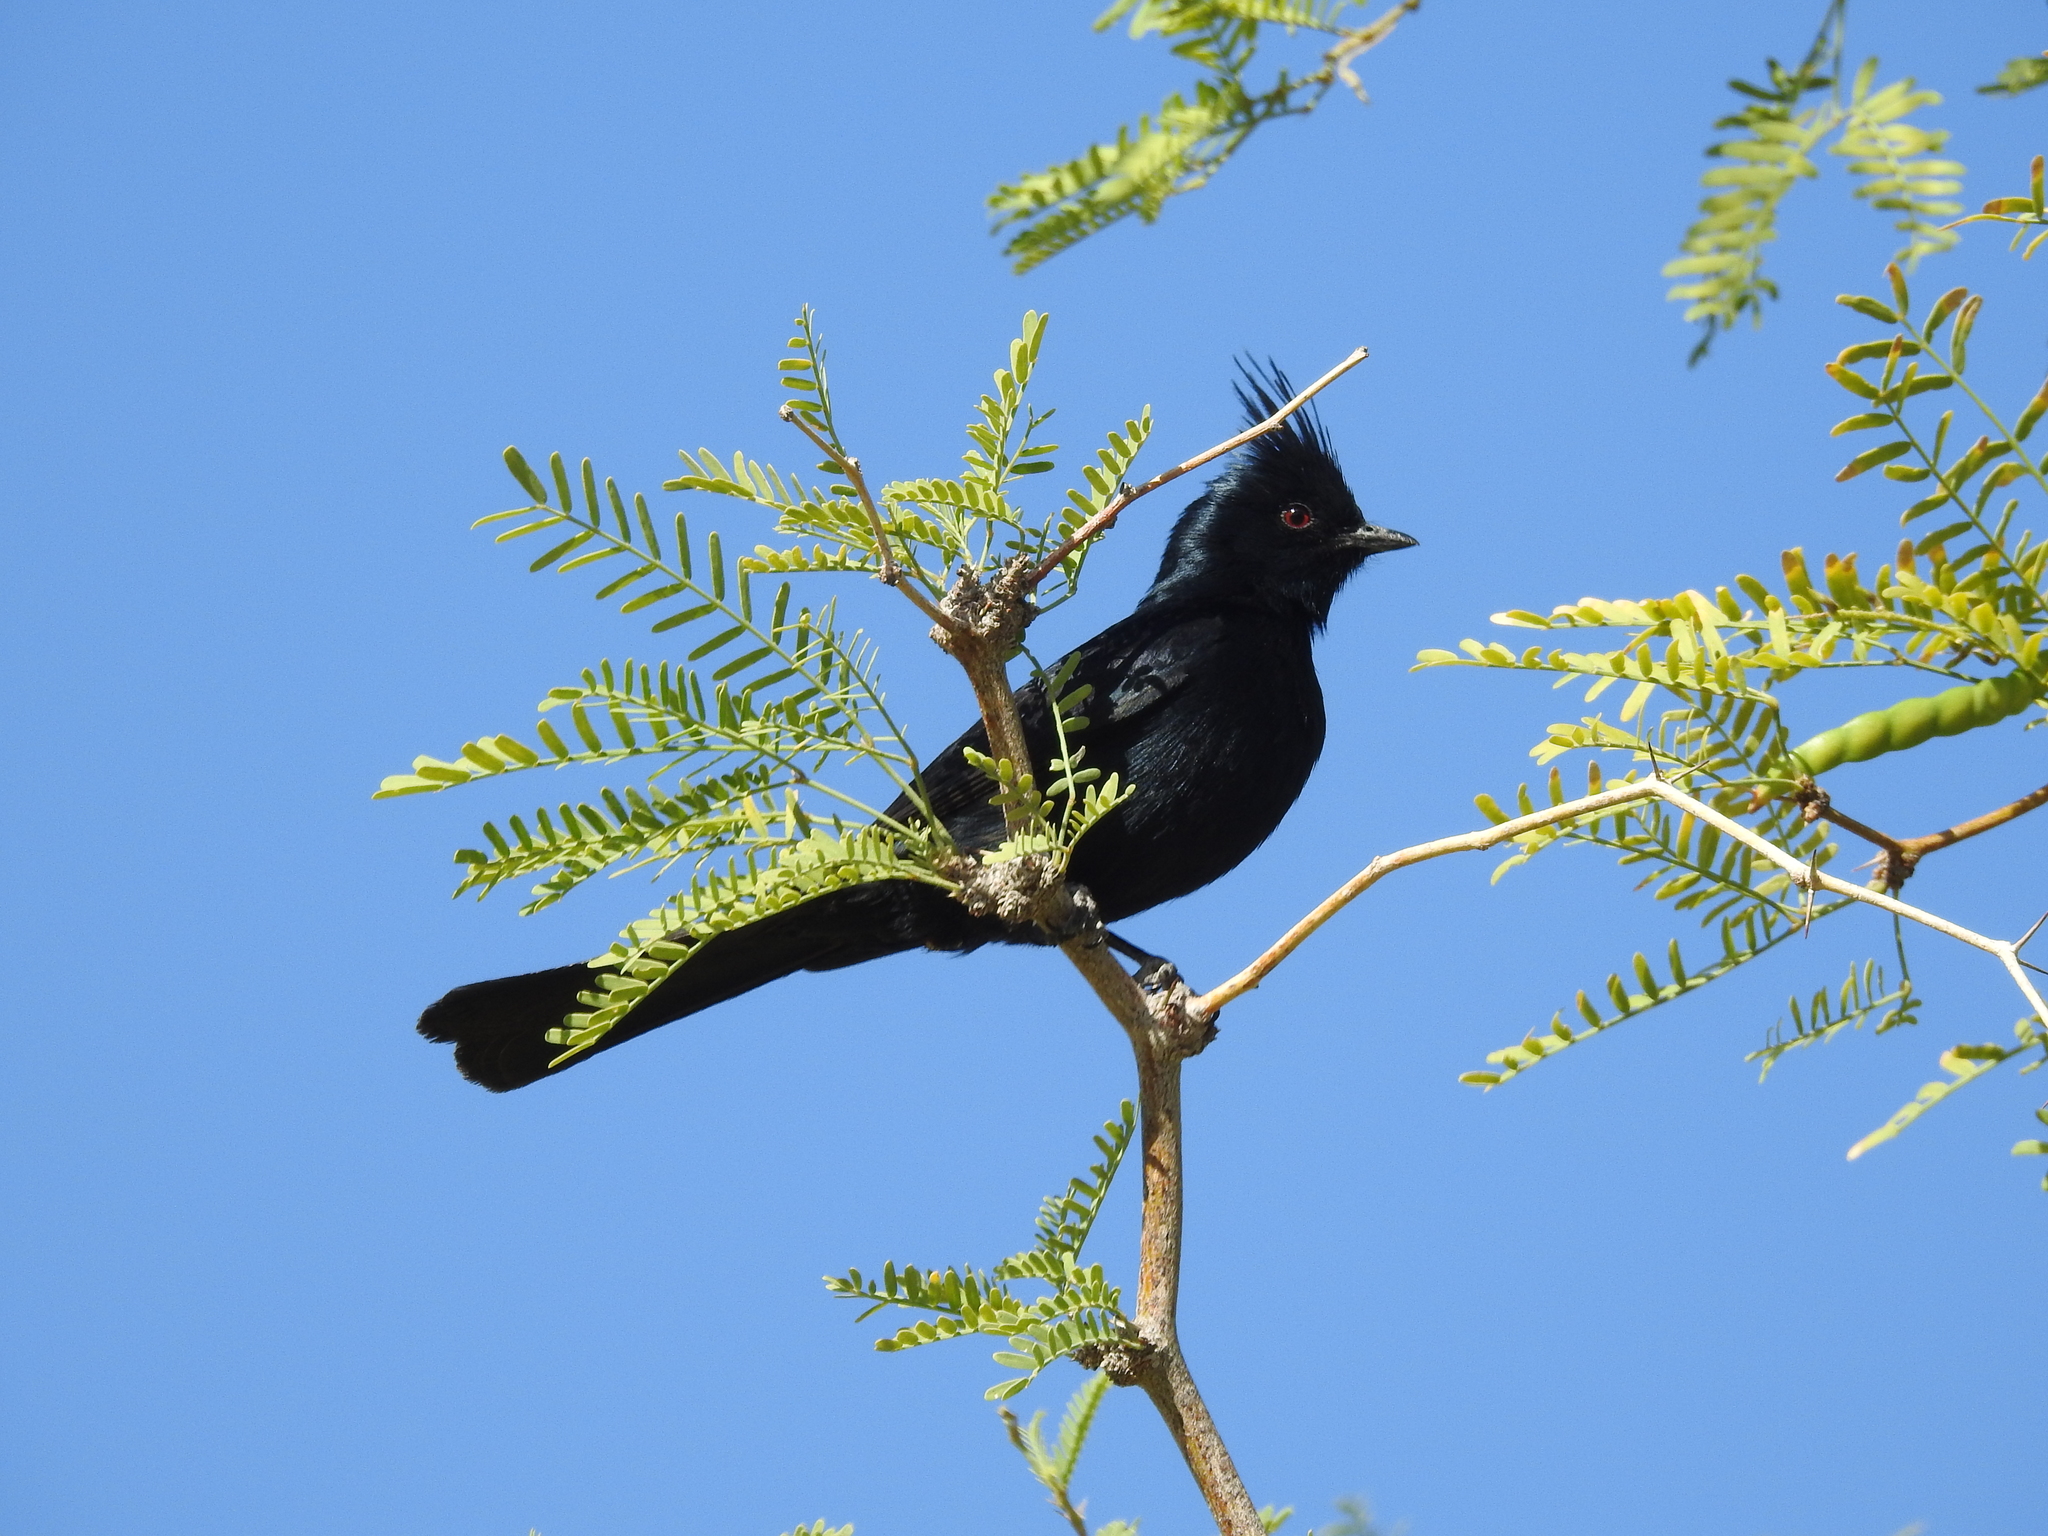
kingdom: Animalia
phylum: Chordata
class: Aves
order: Passeriformes
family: Ptilogonatidae
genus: Phainopepla
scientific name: Phainopepla nitens
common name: Phainopepla
